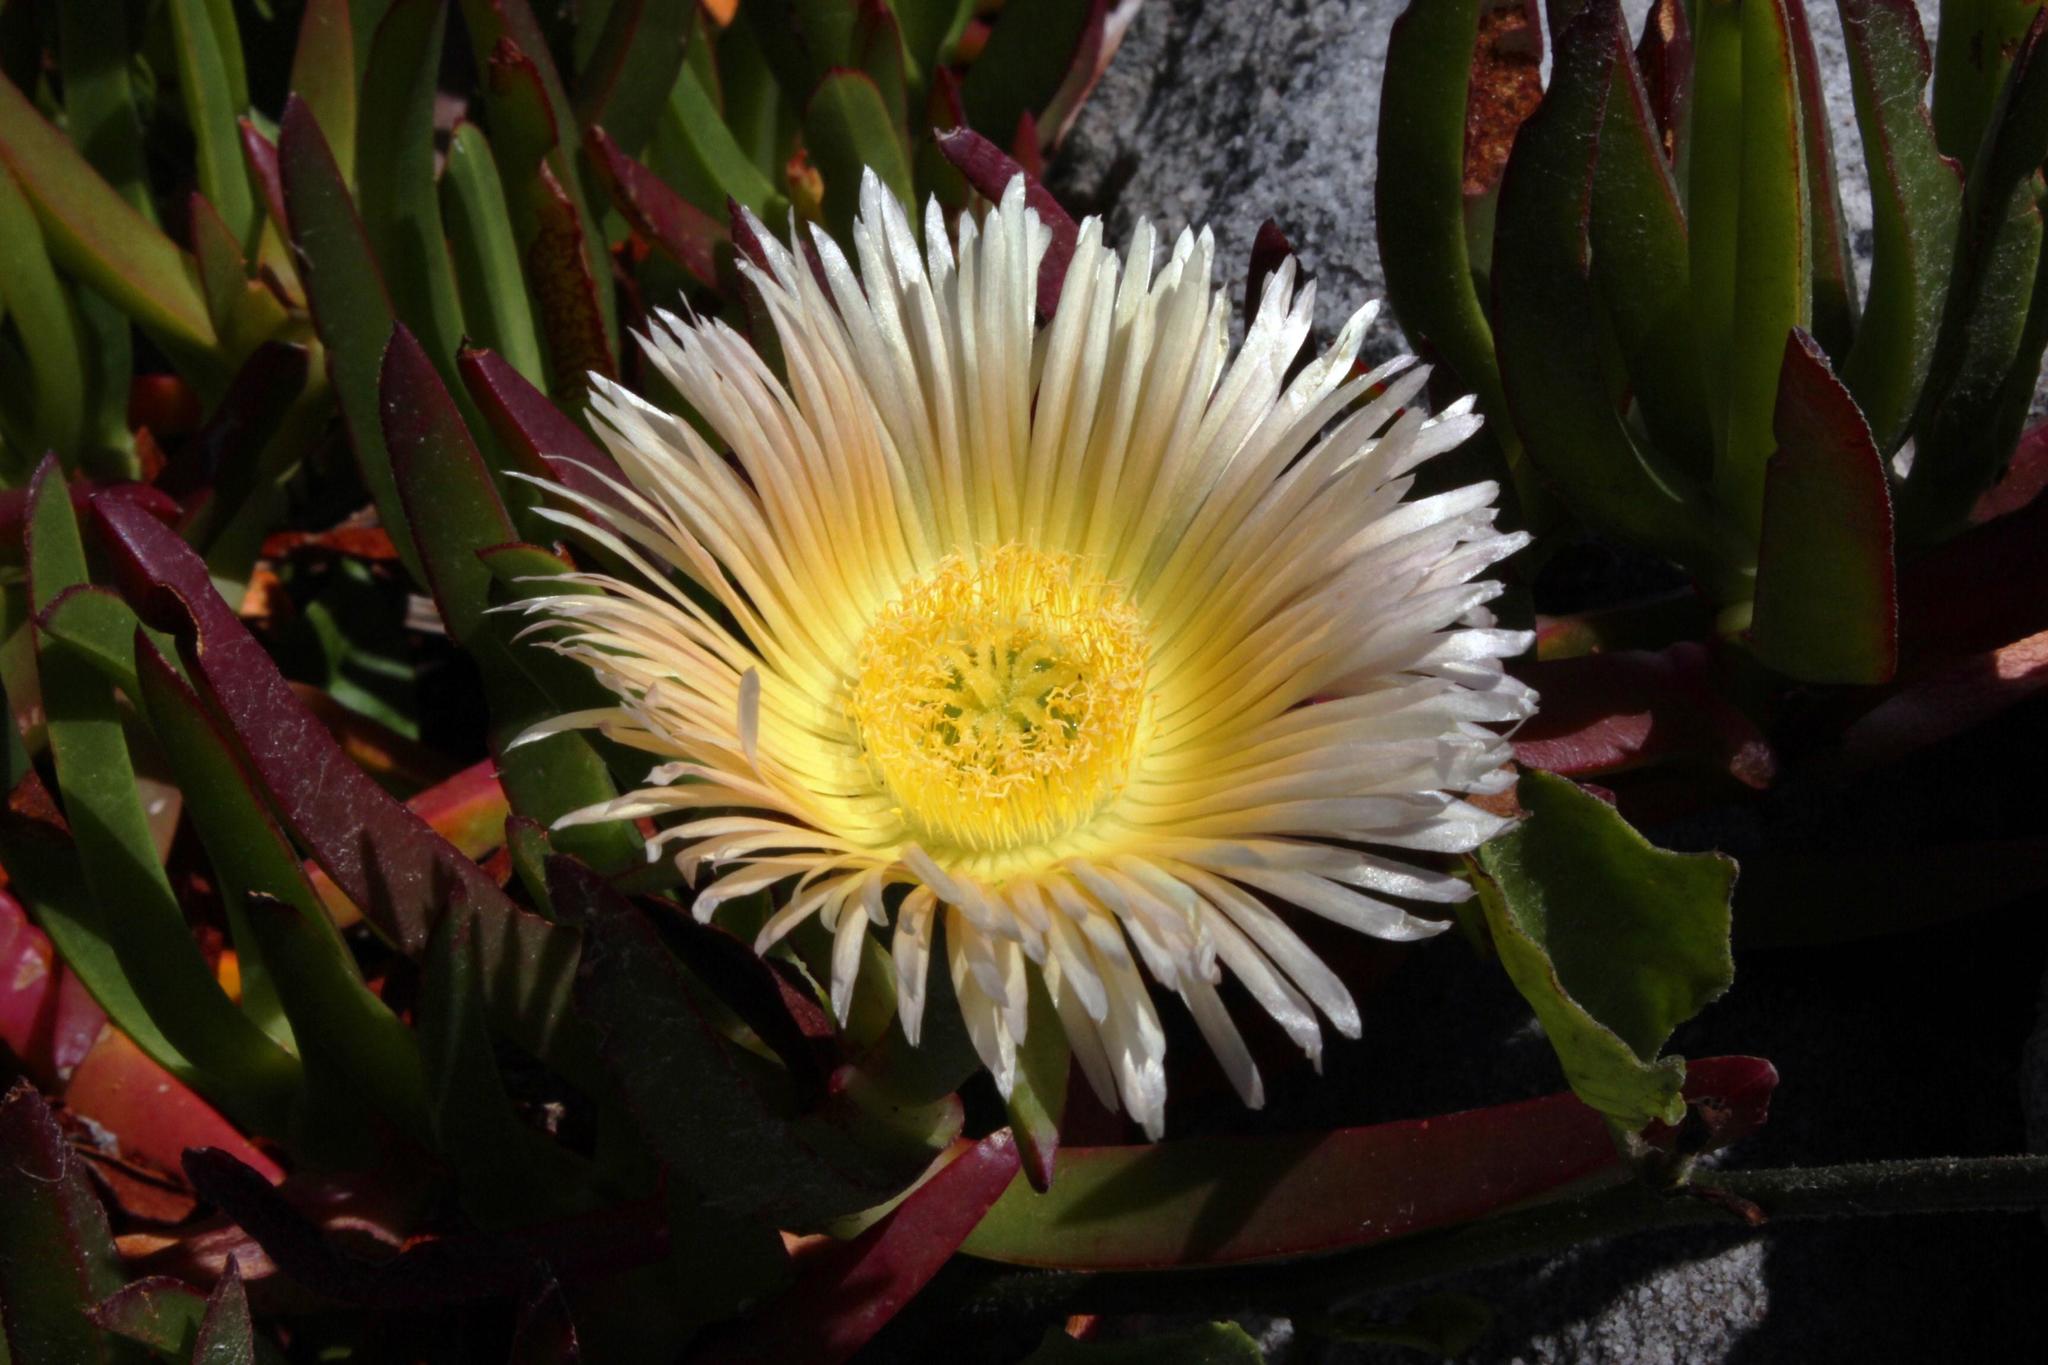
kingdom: Plantae
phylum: Tracheophyta
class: Magnoliopsida
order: Caryophyllales
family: Aizoaceae
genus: Carpobrotus
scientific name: Carpobrotus edulis
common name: Hottentot-fig
